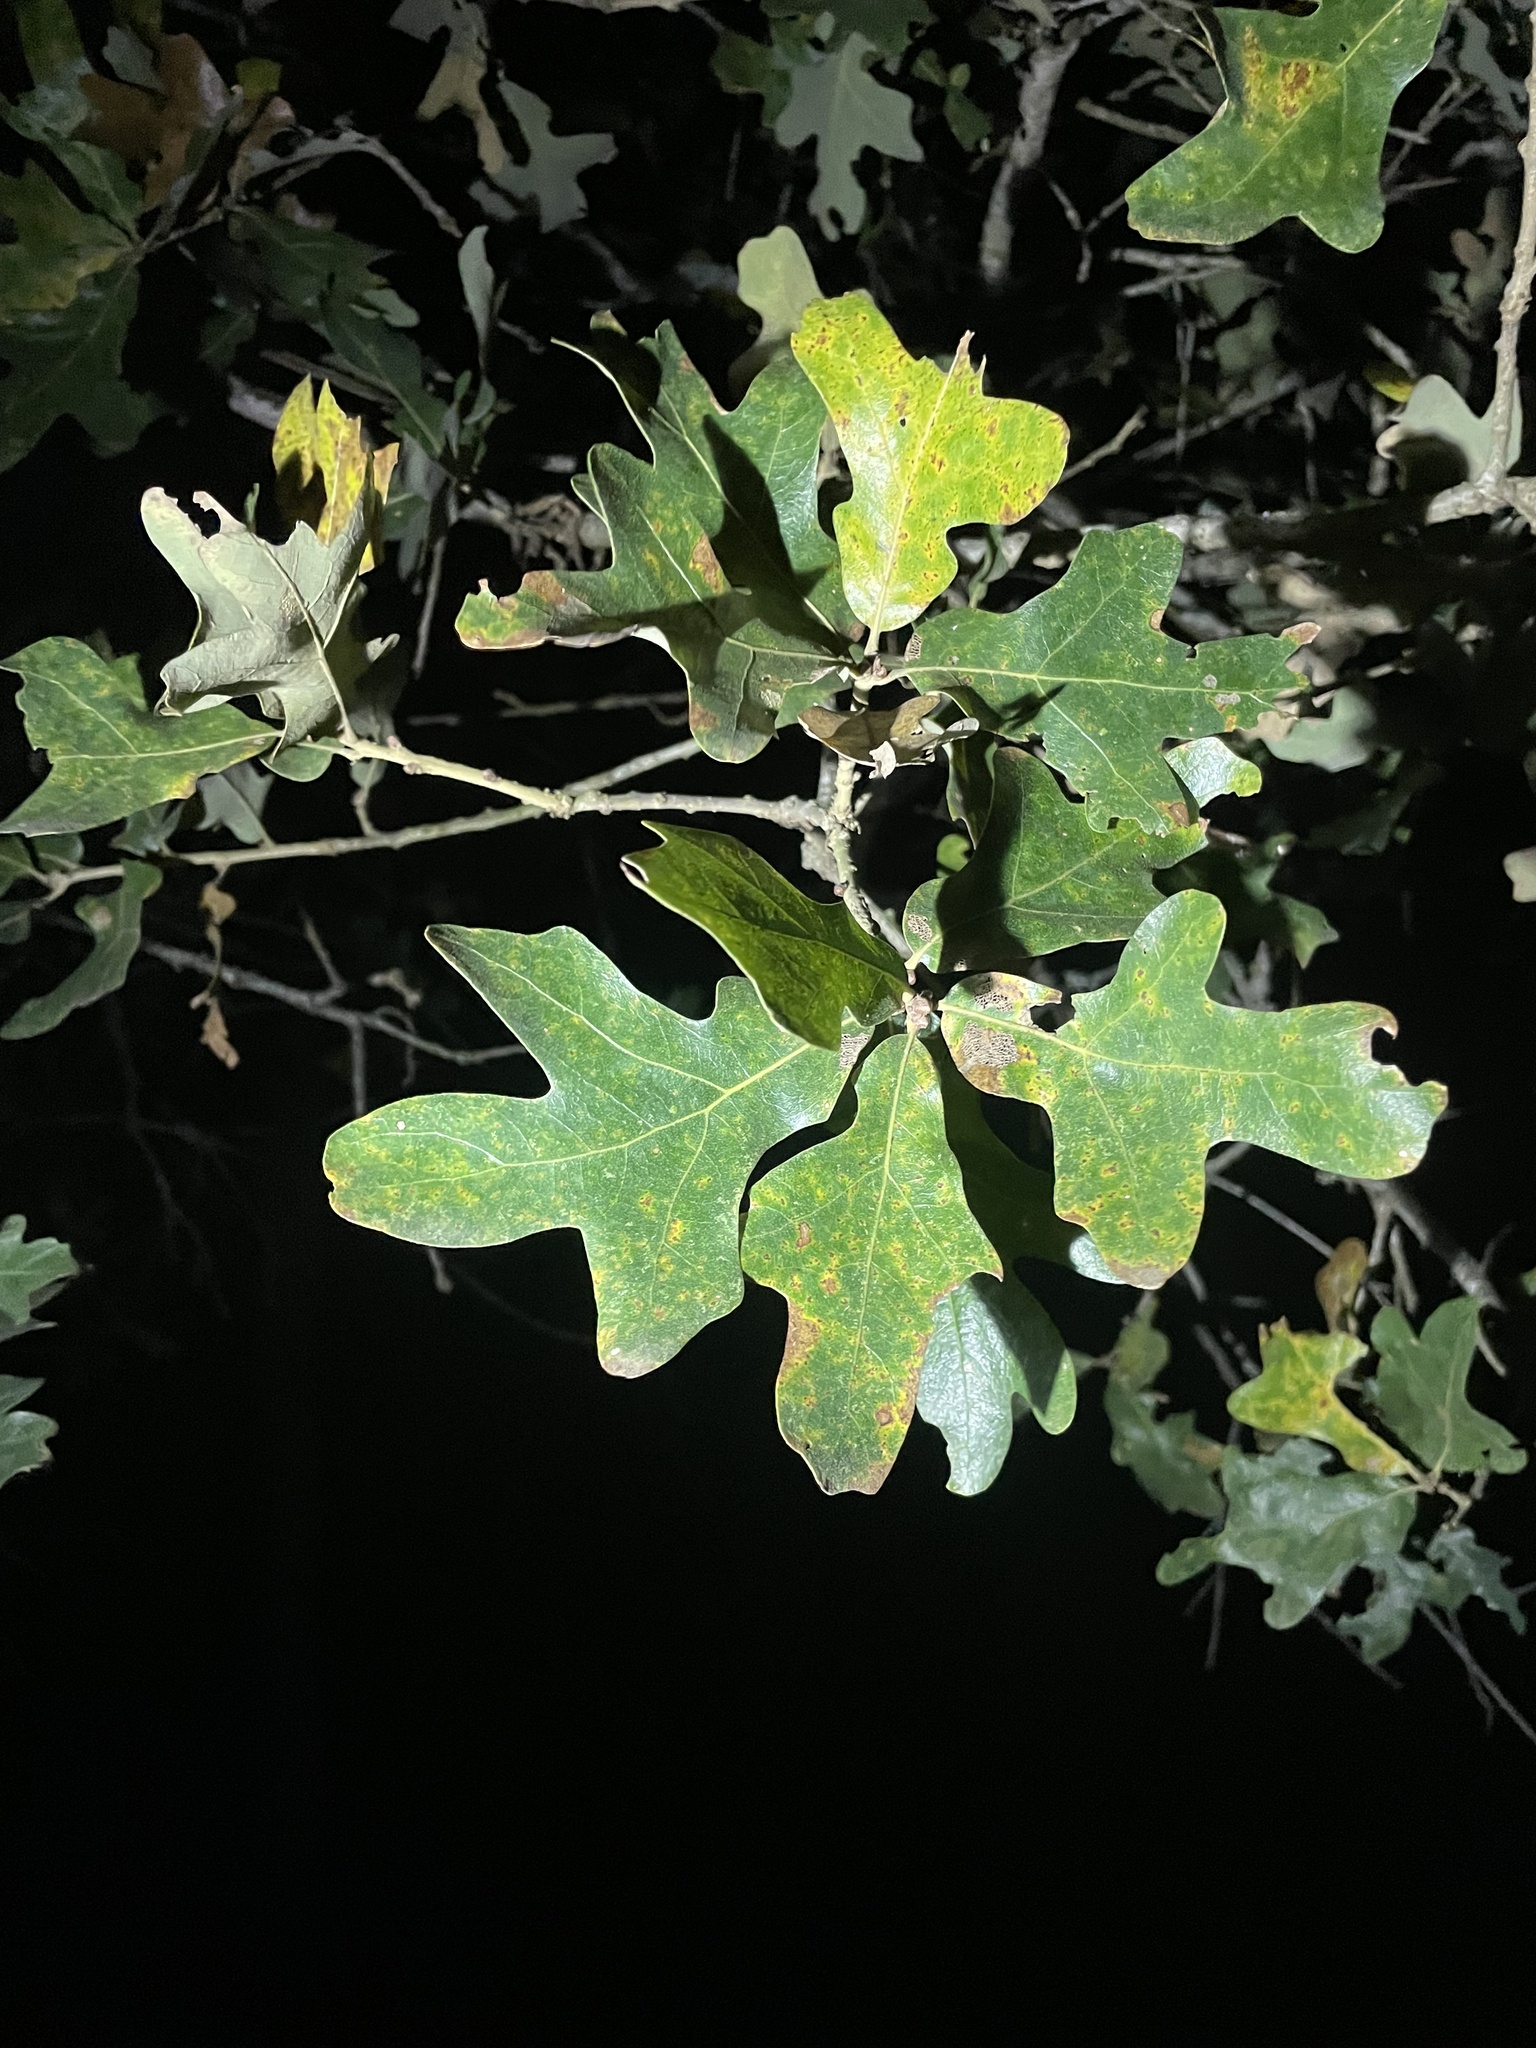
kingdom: Plantae
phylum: Tracheophyta
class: Magnoliopsida
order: Fagales
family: Fagaceae
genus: Quercus
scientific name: Quercus stellata
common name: Post oak
